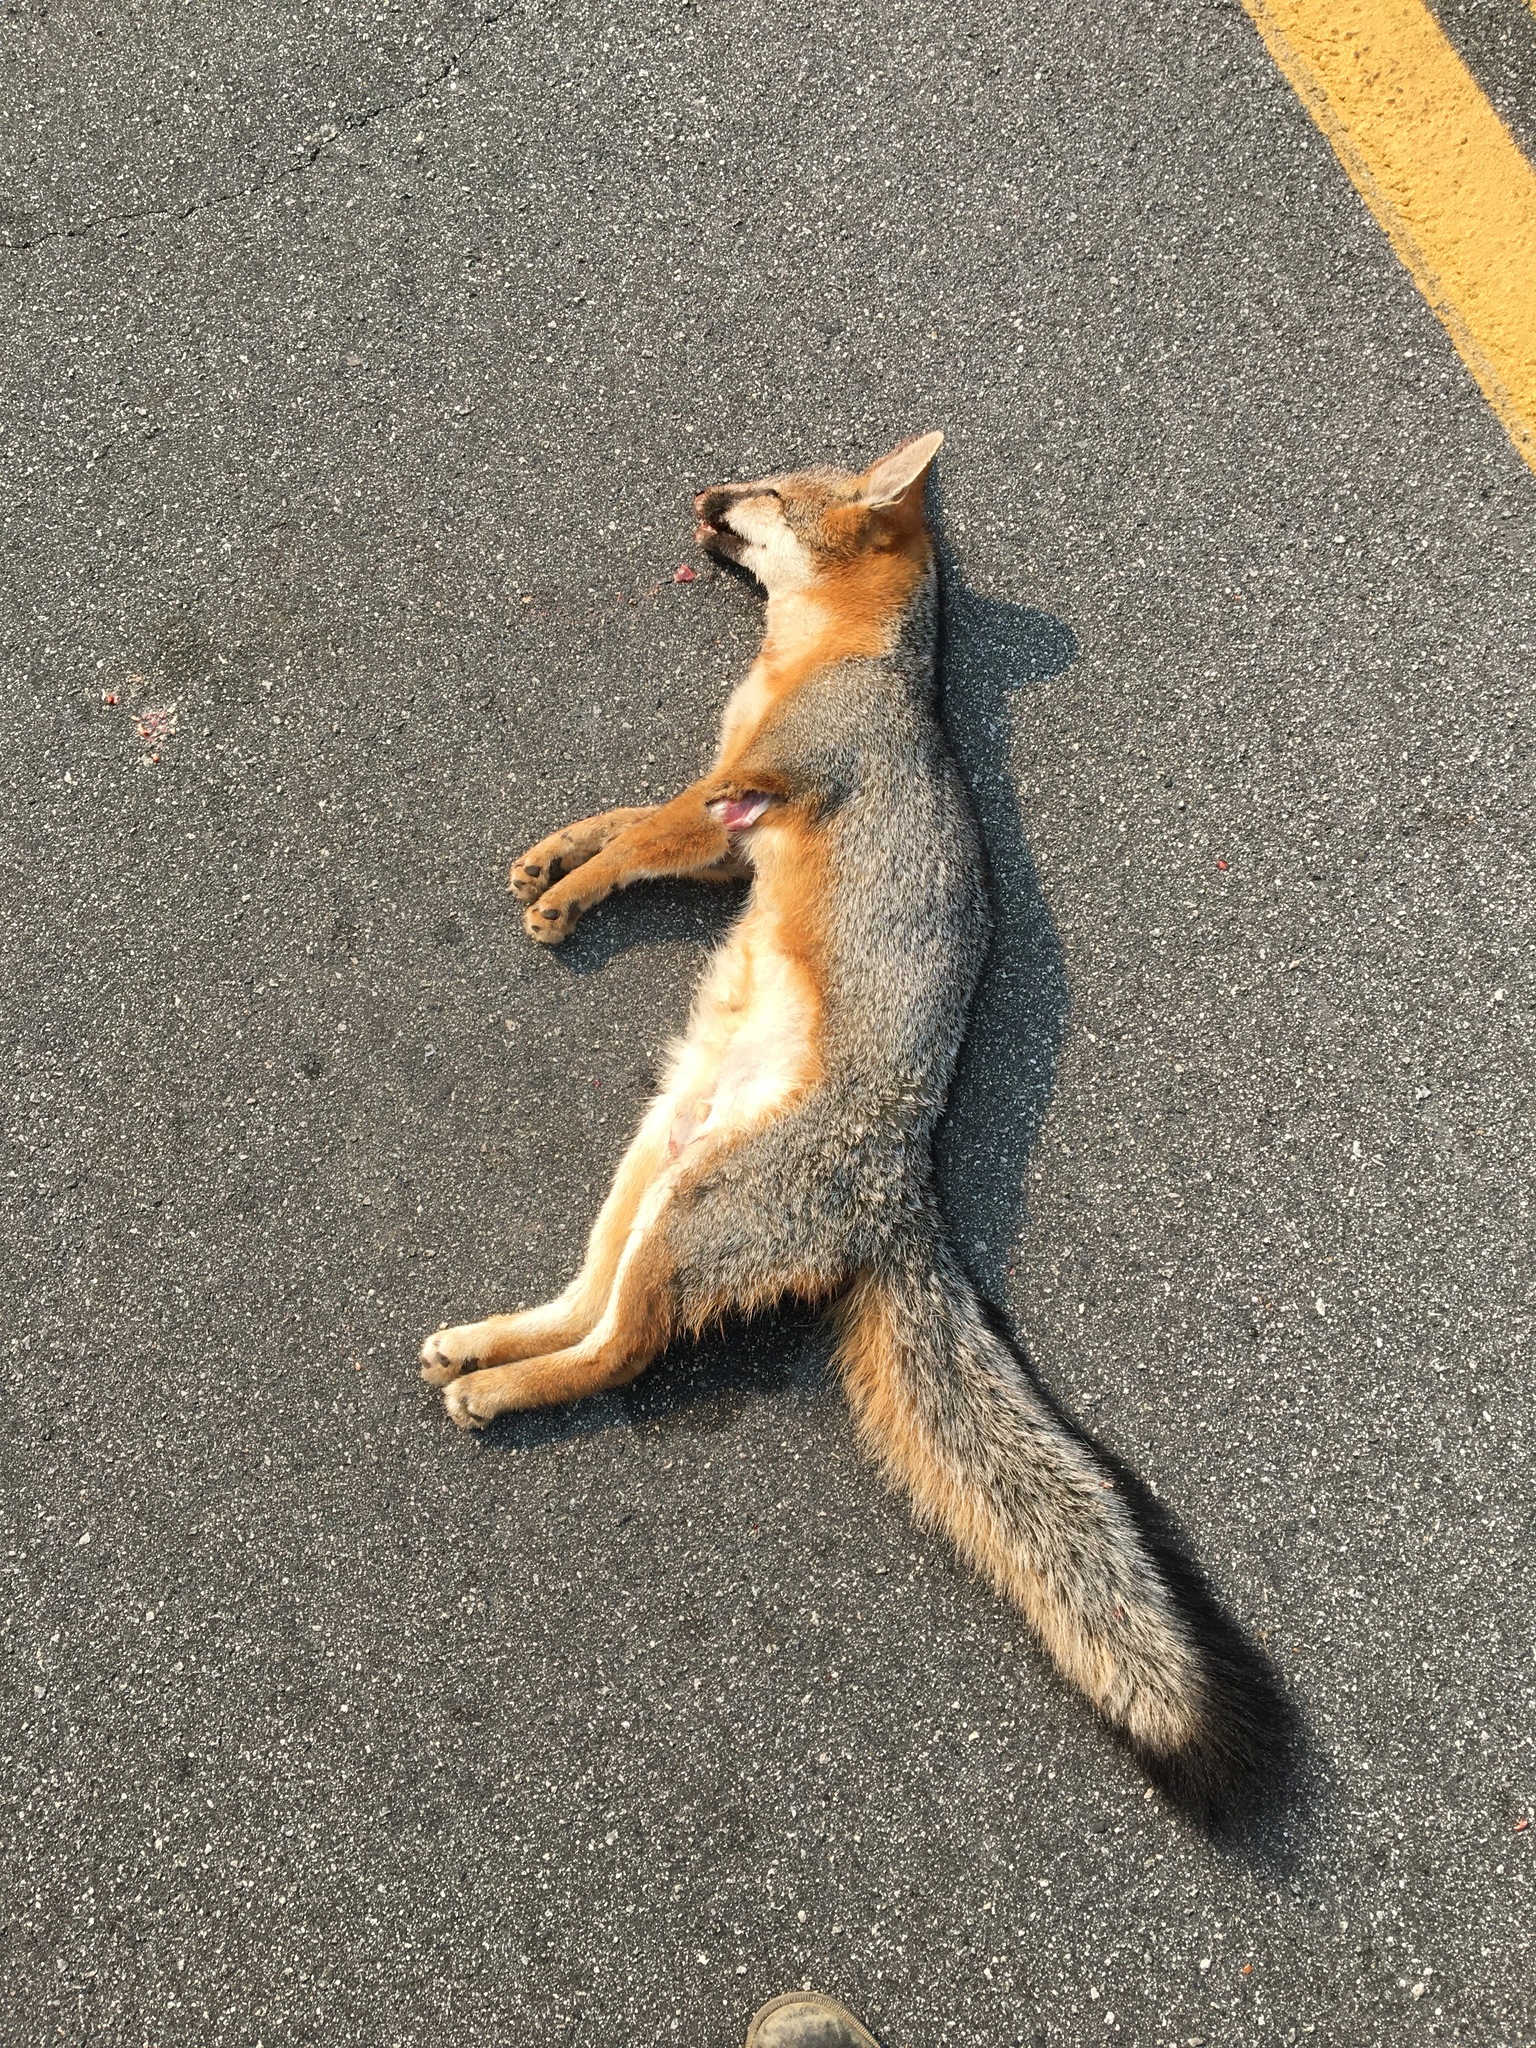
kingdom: Animalia
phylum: Chordata
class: Mammalia
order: Carnivora
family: Canidae
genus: Urocyon
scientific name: Urocyon cinereoargenteus
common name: Gray fox
